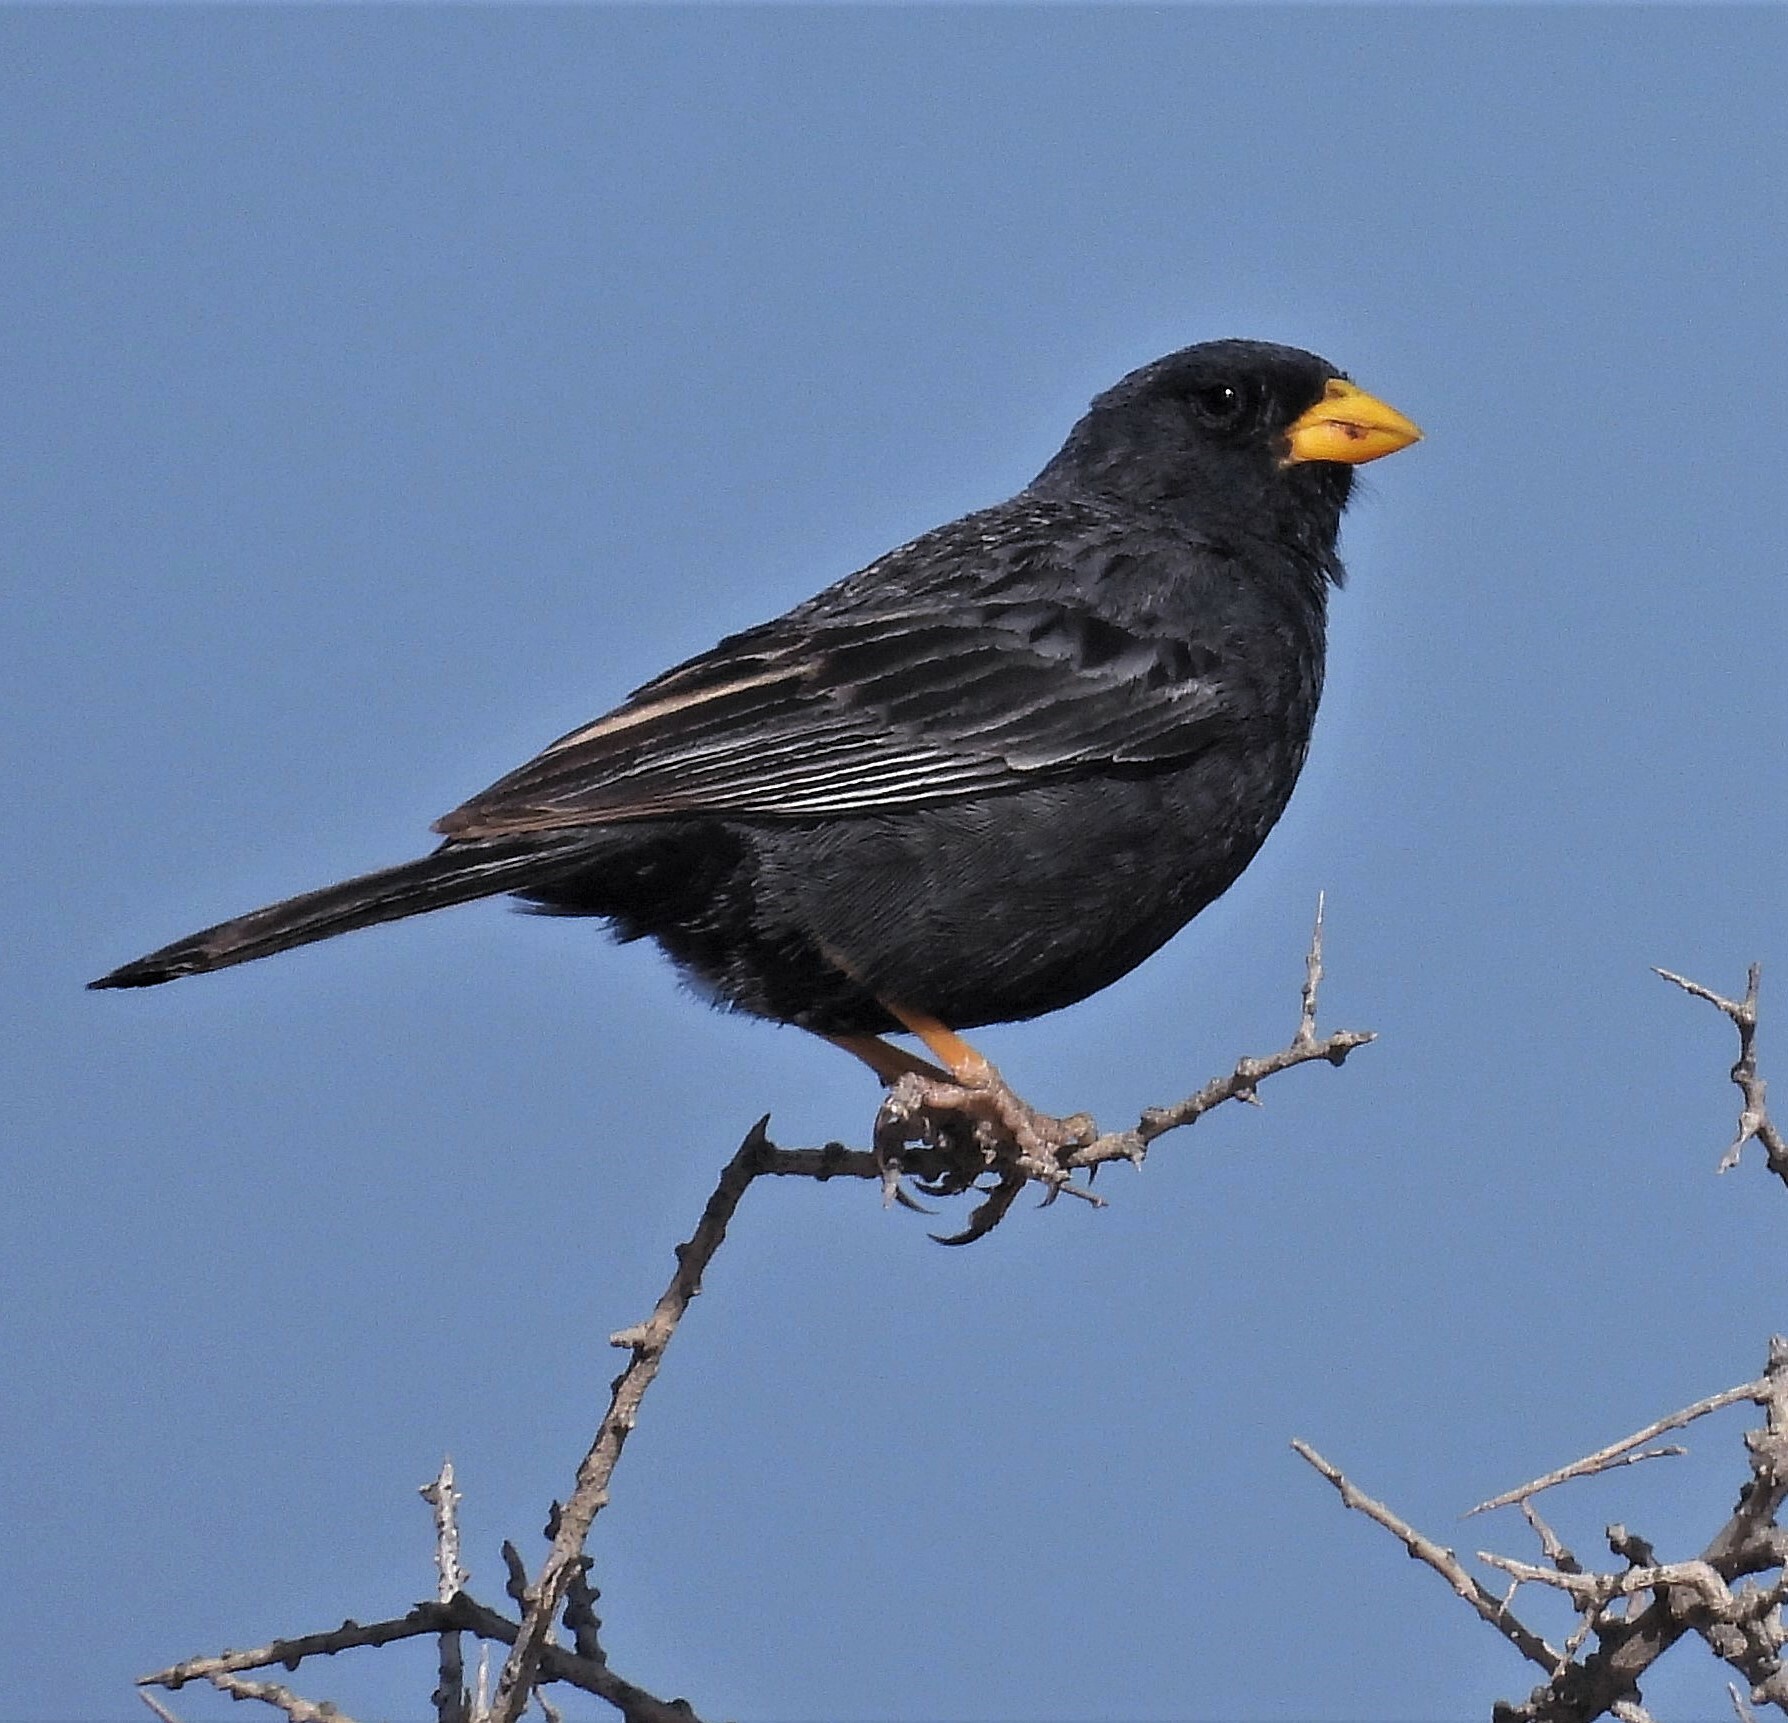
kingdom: Animalia
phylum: Chordata
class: Aves
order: Passeriformes
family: Thraupidae
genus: Porphyrospiza
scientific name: Porphyrospiza carbonaria
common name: Carbon finch
